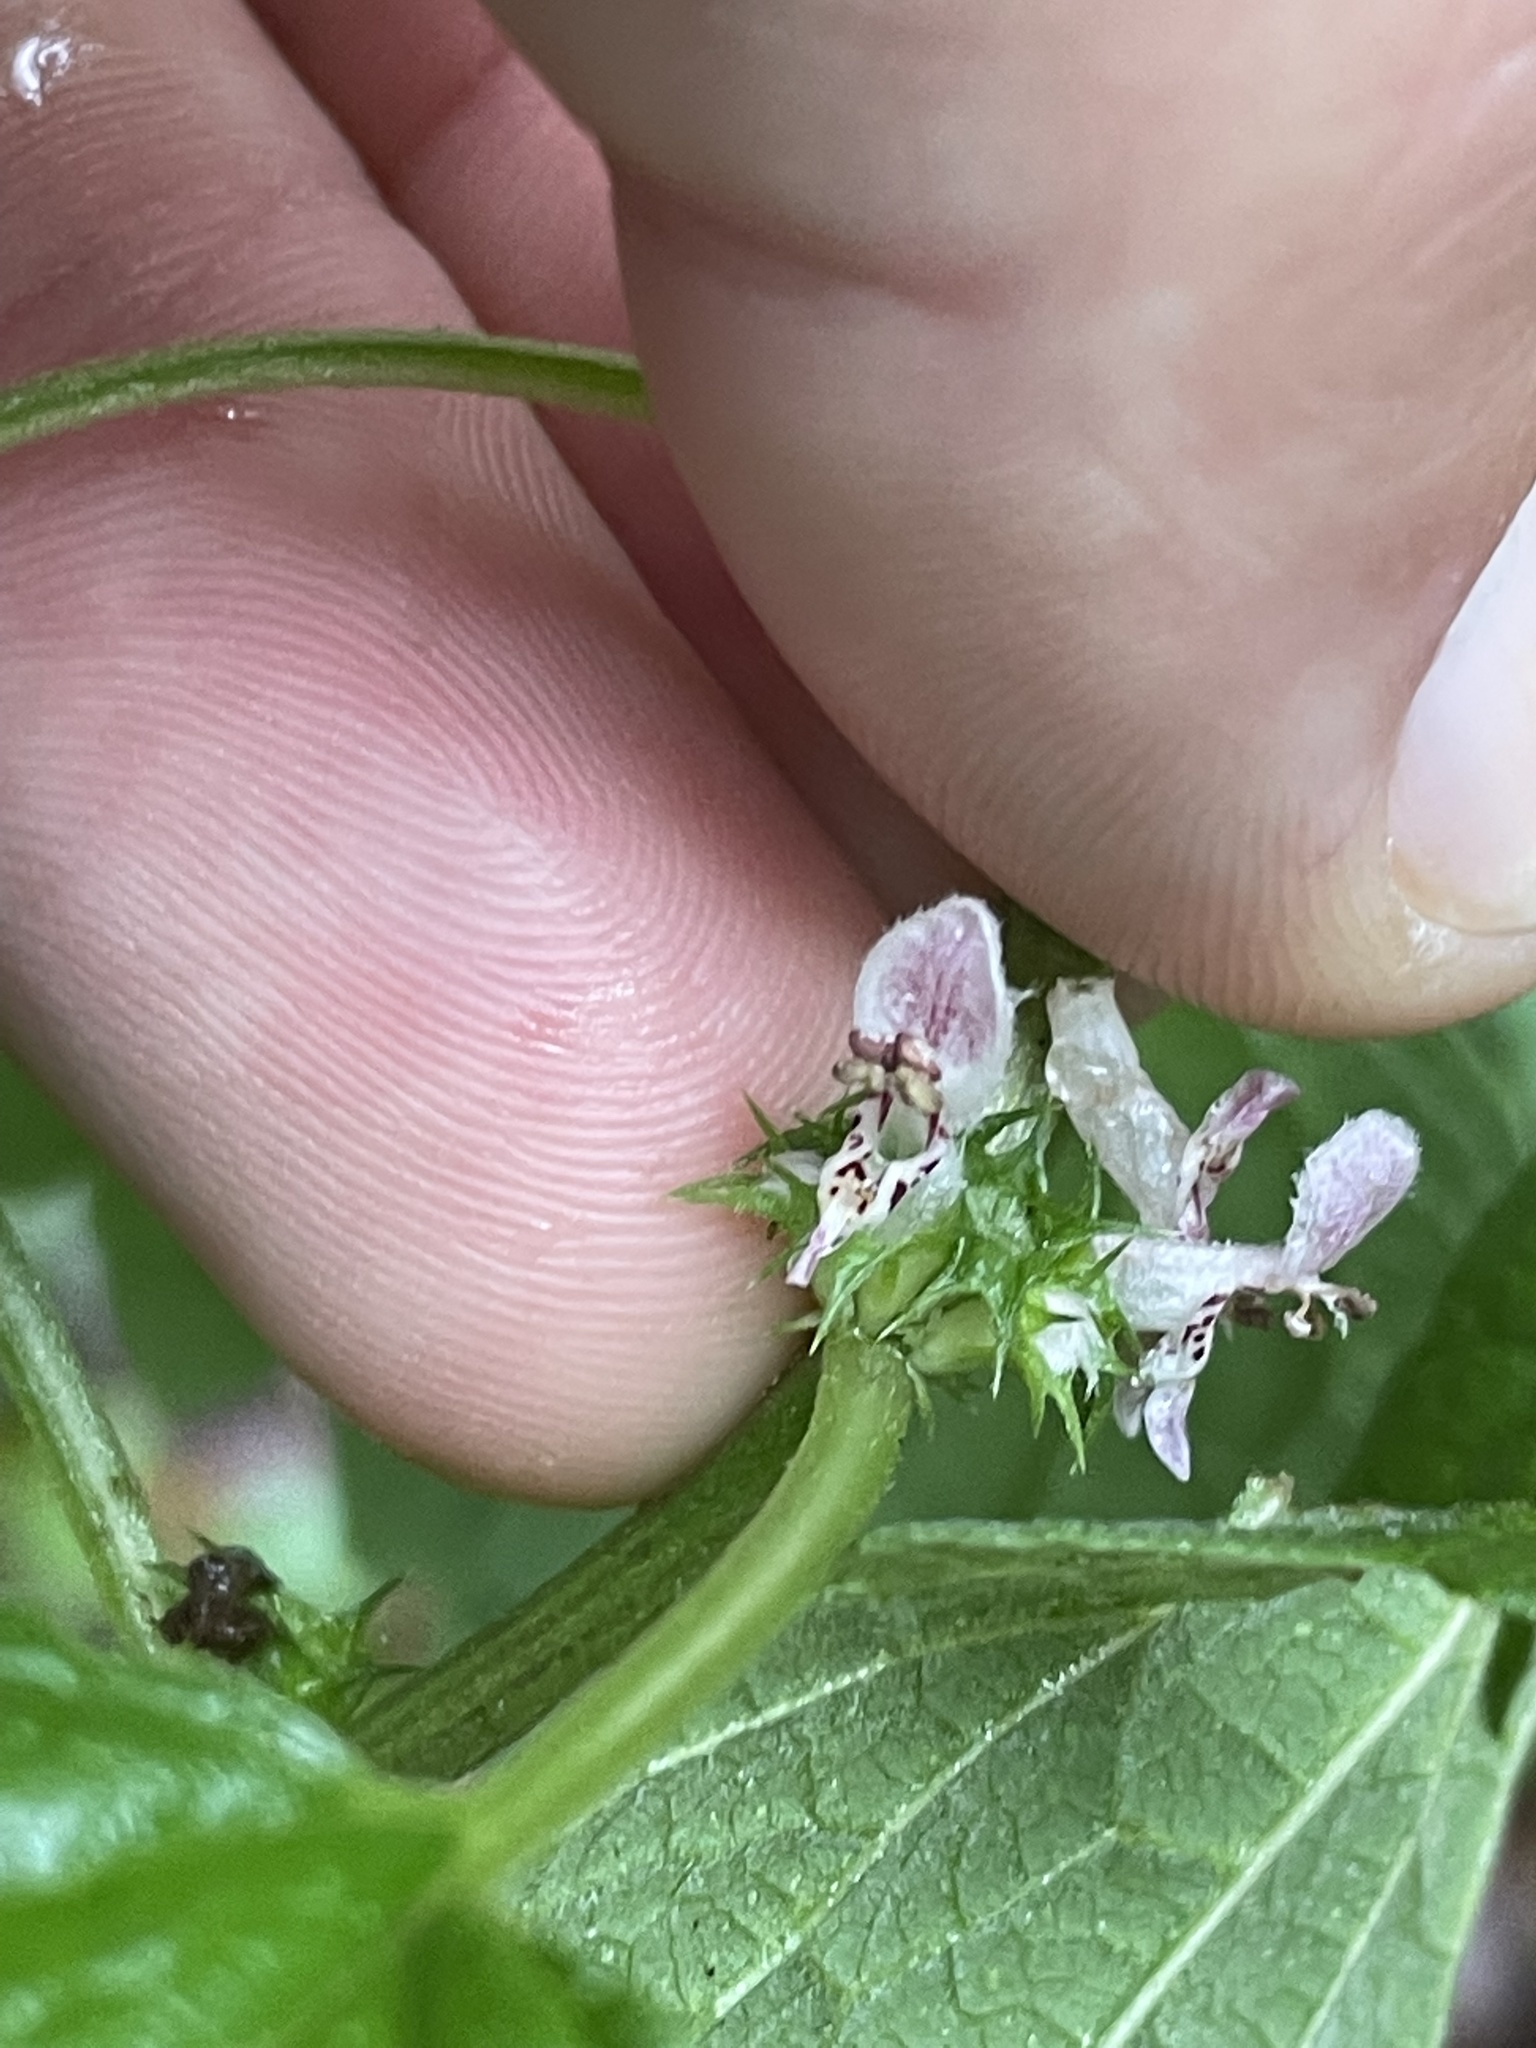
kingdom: Plantae
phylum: Tracheophyta
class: Magnoliopsida
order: Lamiales
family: Lamiaceae
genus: Leonurus
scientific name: Leonurus cardiaca
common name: Motherwort
